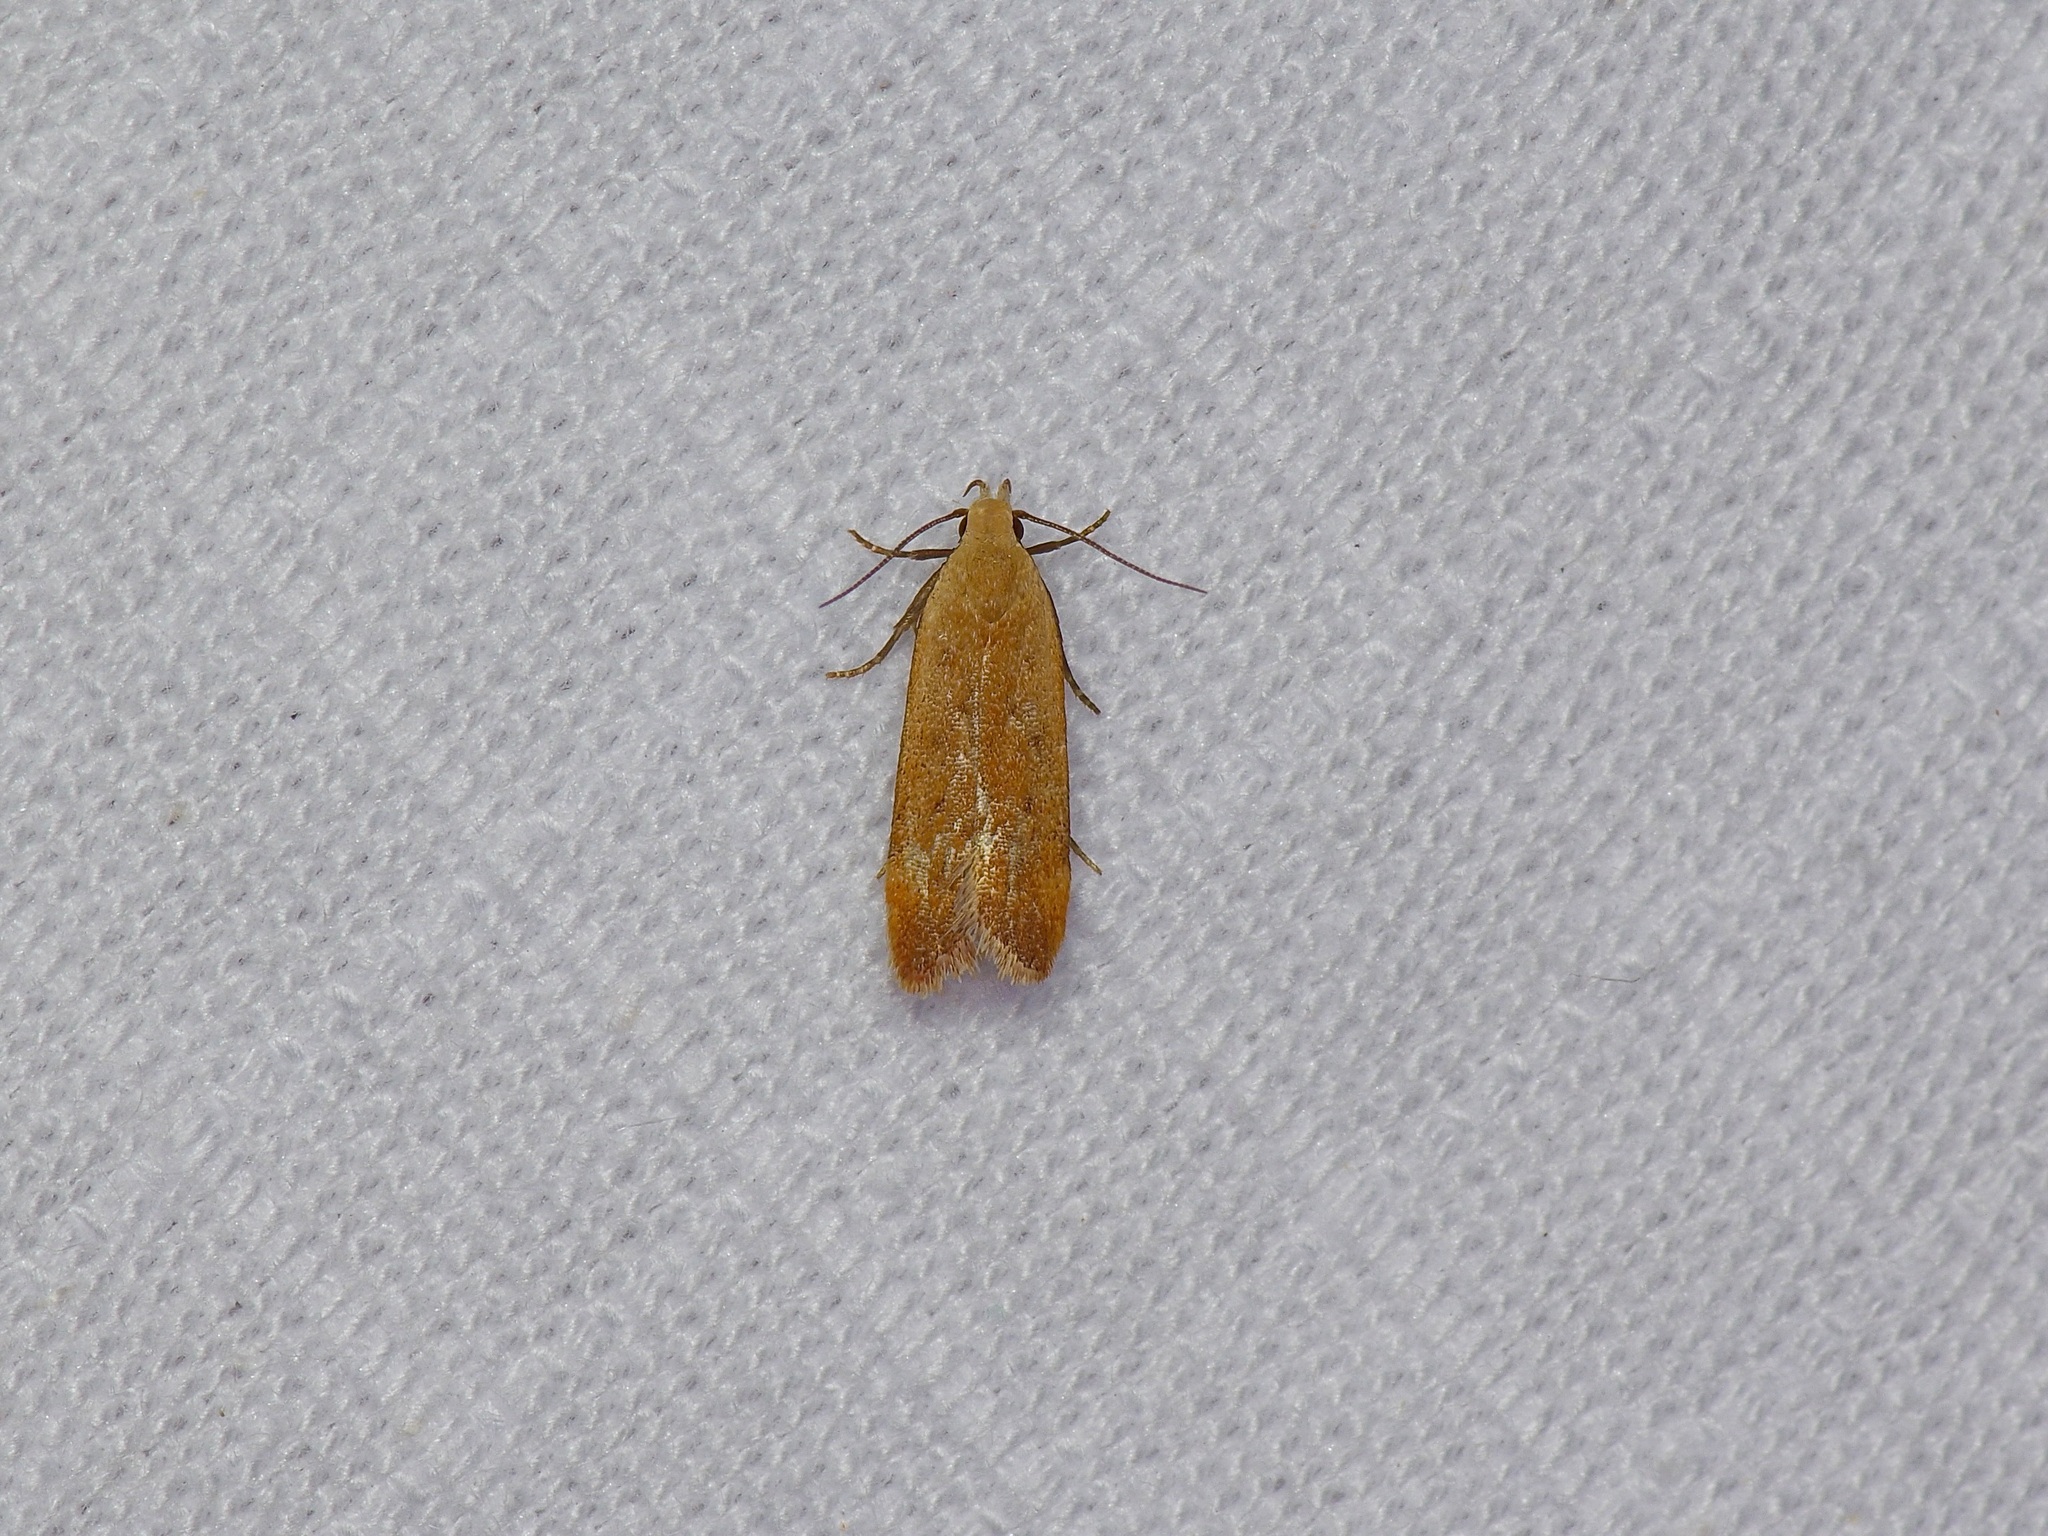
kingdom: Animalia
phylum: Arthropoda
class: Insecta
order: Lepidoptera
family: Gelechiidae
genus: Anacampsis
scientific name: Anacampsis fullonella
